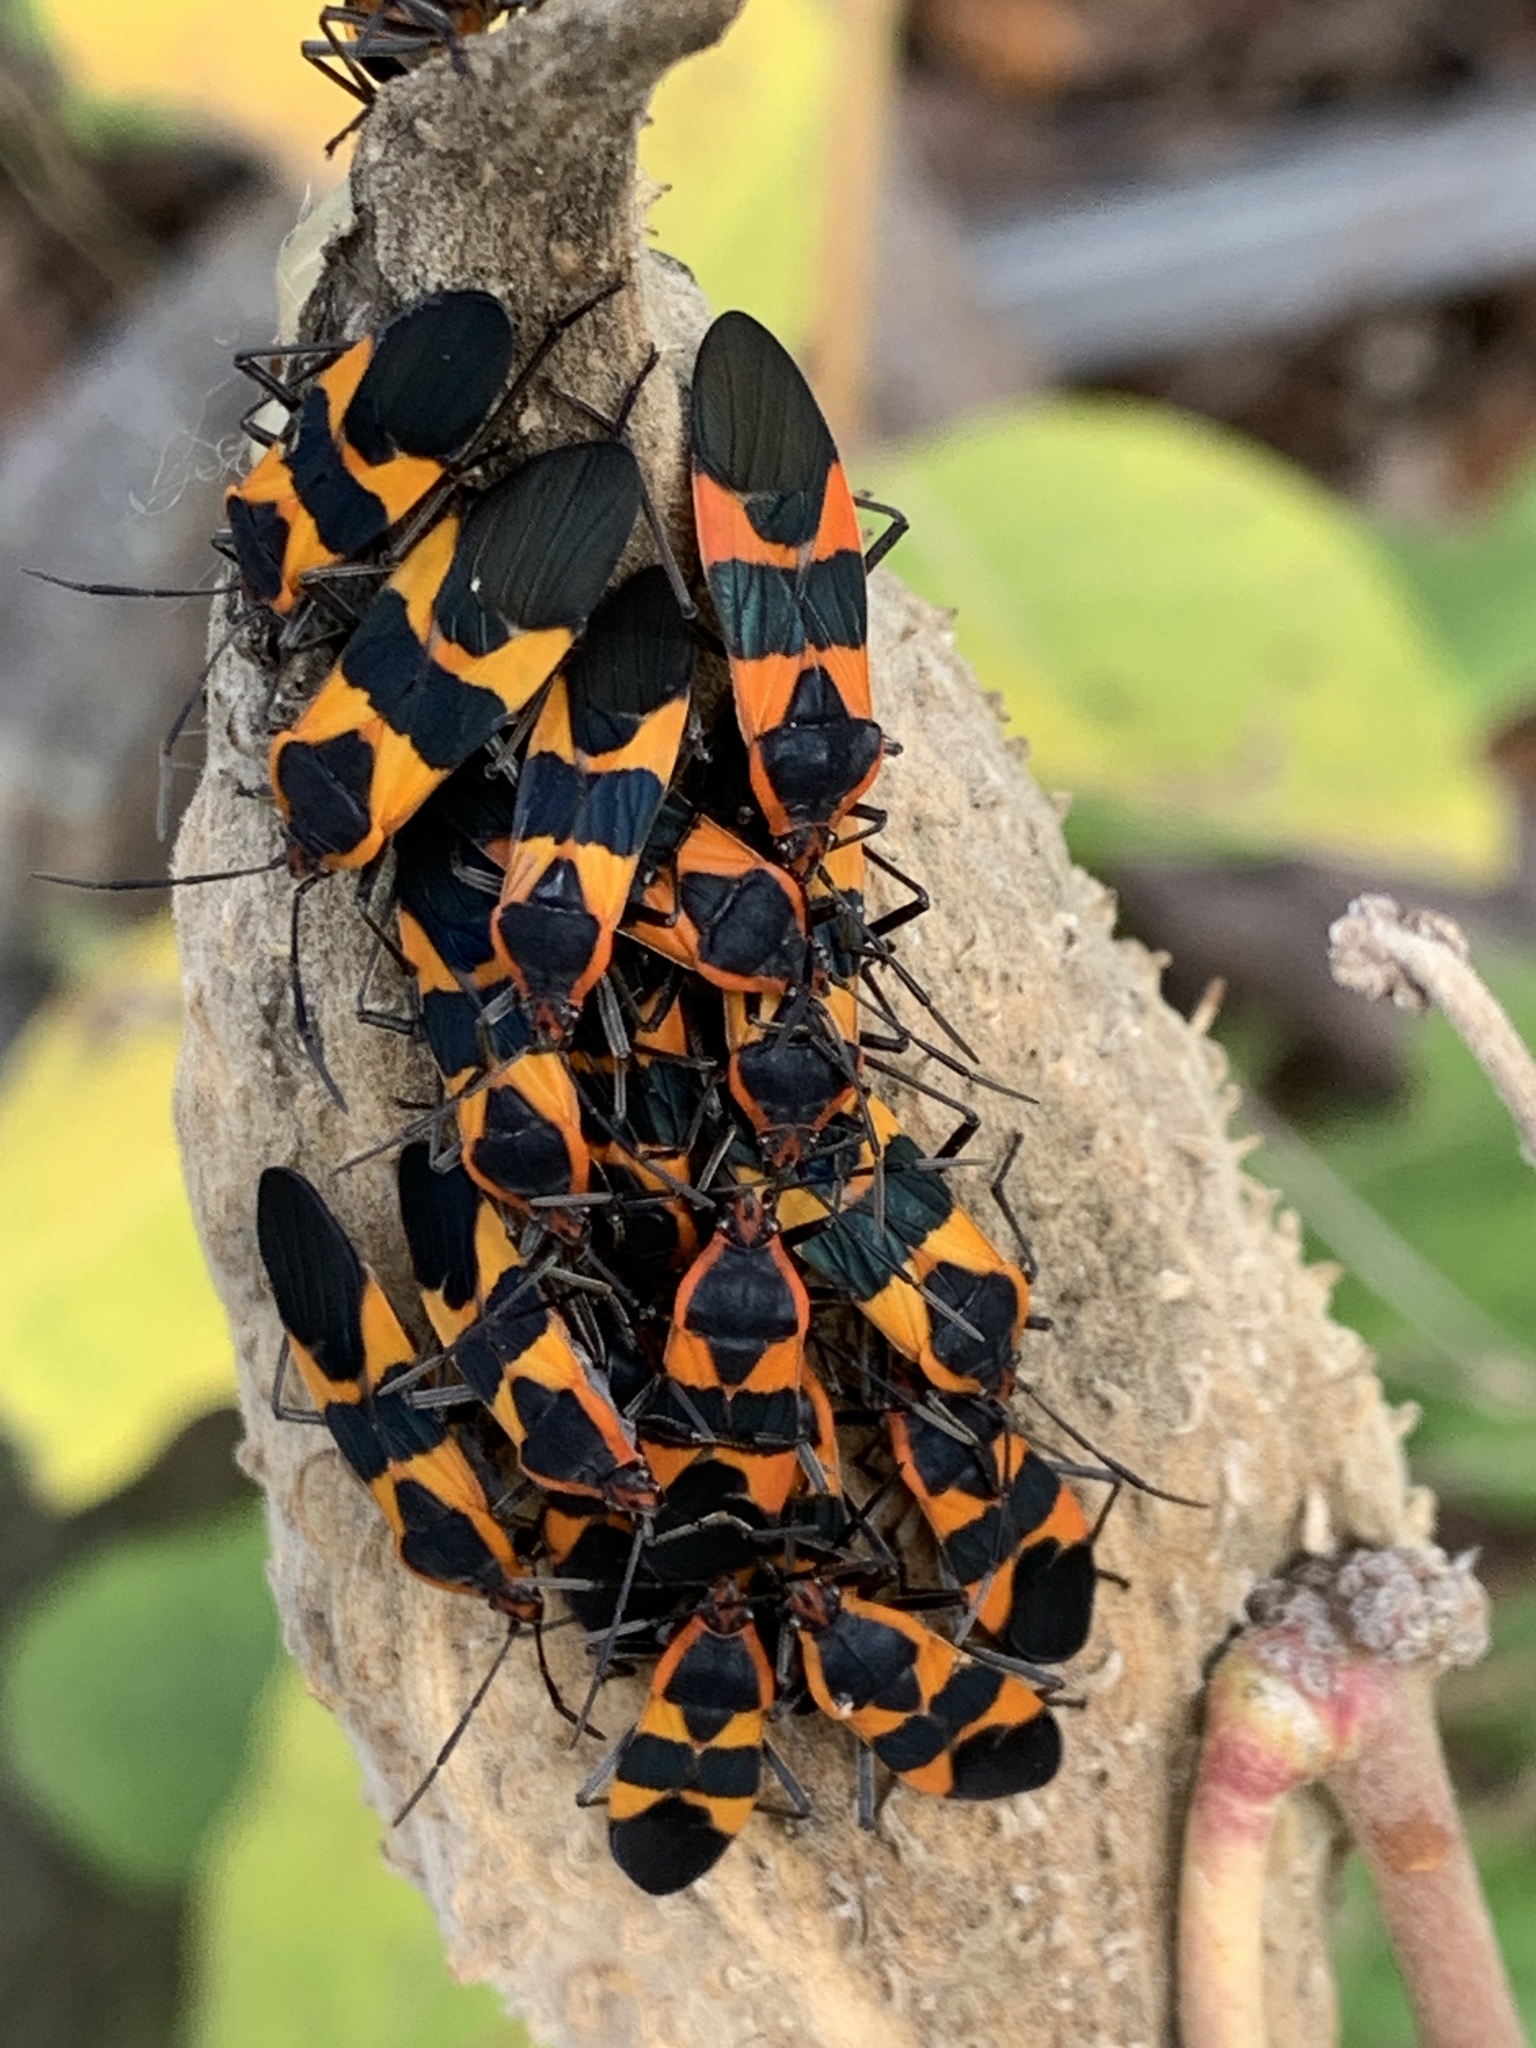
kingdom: Animalia
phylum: Arthropoda
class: Insecta
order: Hemiptera
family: Lygaeidae
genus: Oncopeltus
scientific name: Oncopeltus fasciatus
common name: Large milkweed bug
